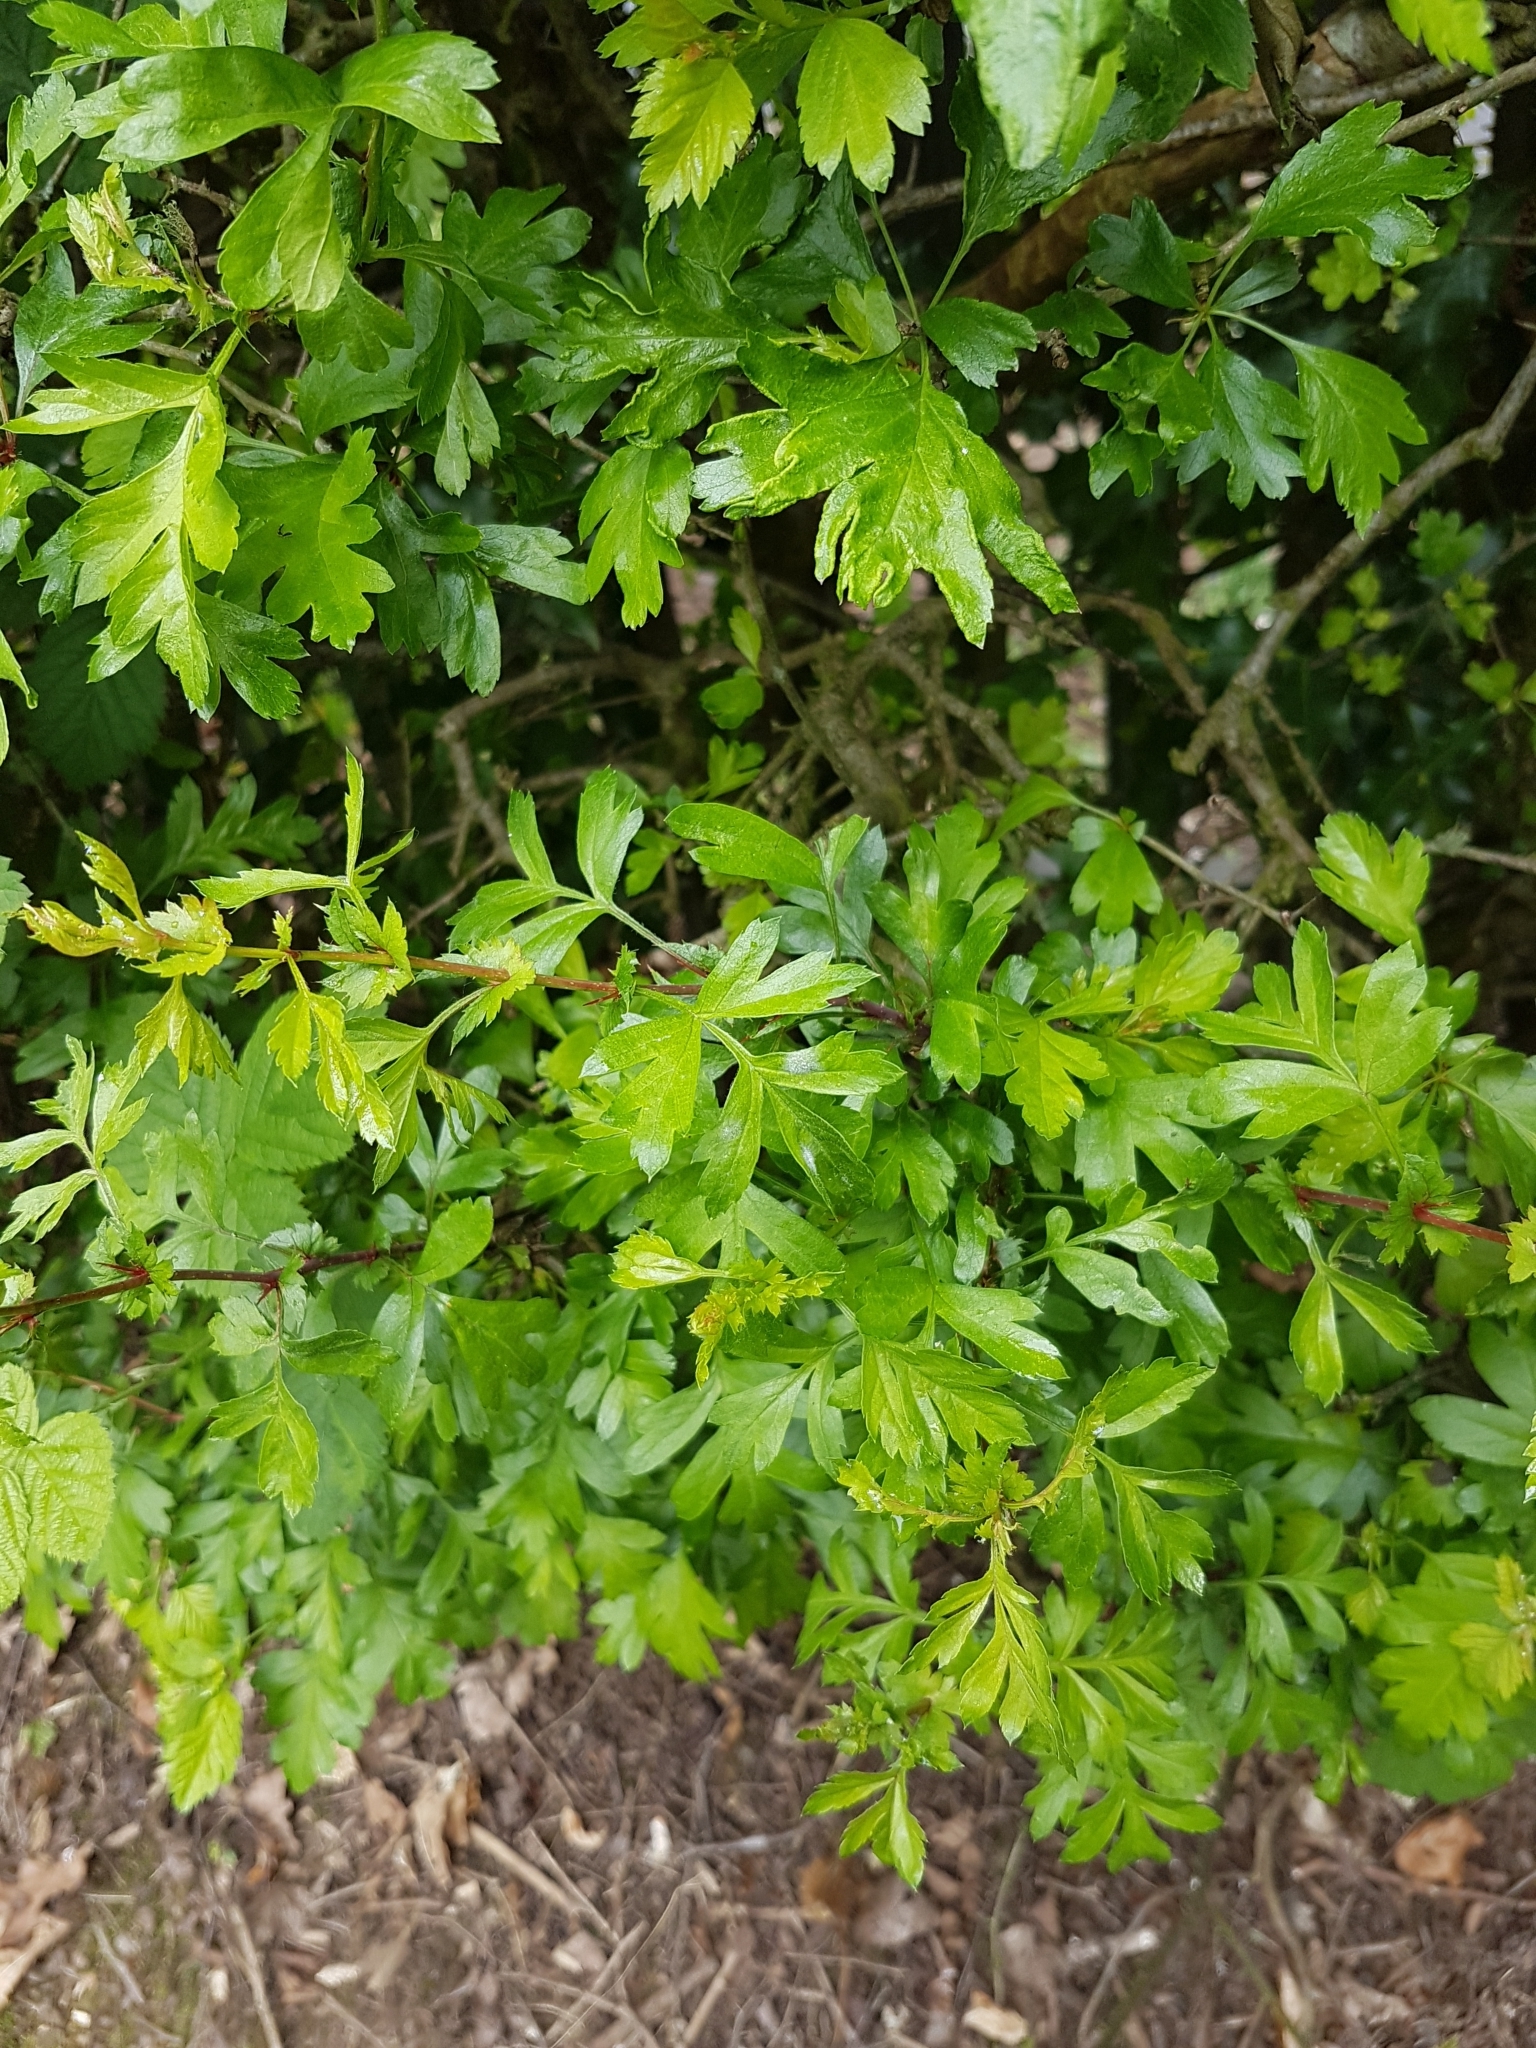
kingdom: Plantae
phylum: Tracheophyta
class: Magnoliopsida
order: Rosales
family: Rosaceae
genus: Crataegus
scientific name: Crataegus monogyna
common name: Hawthorn
